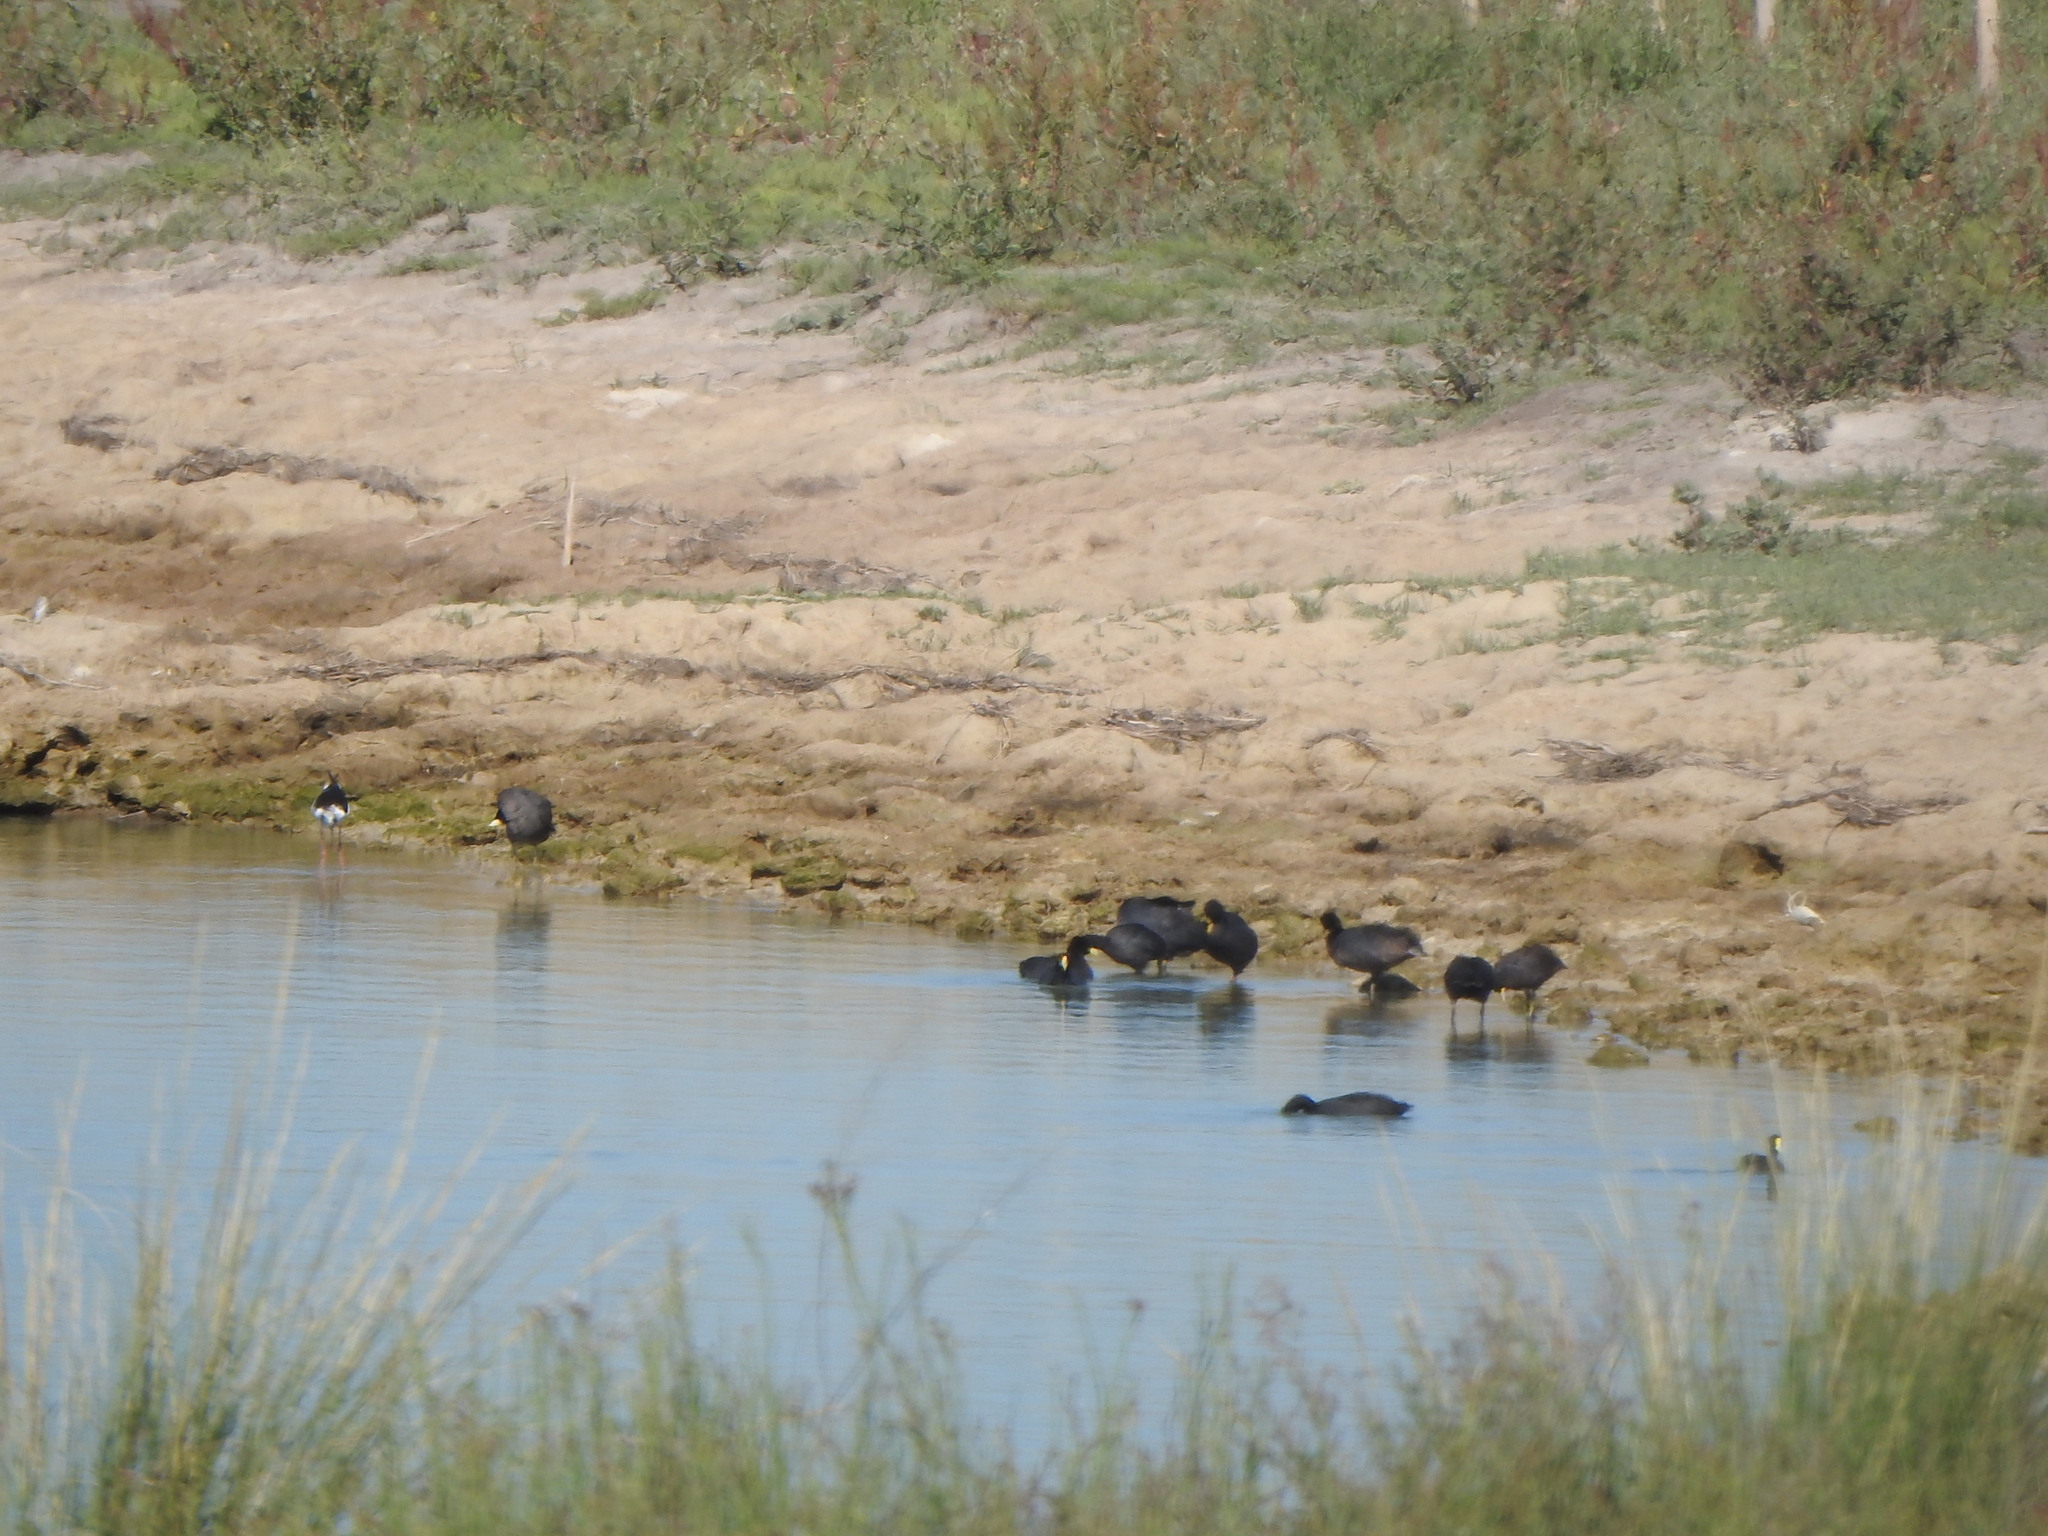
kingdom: Animalia
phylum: Chordata
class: Aves
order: Gruiformes
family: Rallidae
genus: Fulica
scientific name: Fulica leucoptera
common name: White-winged coot
